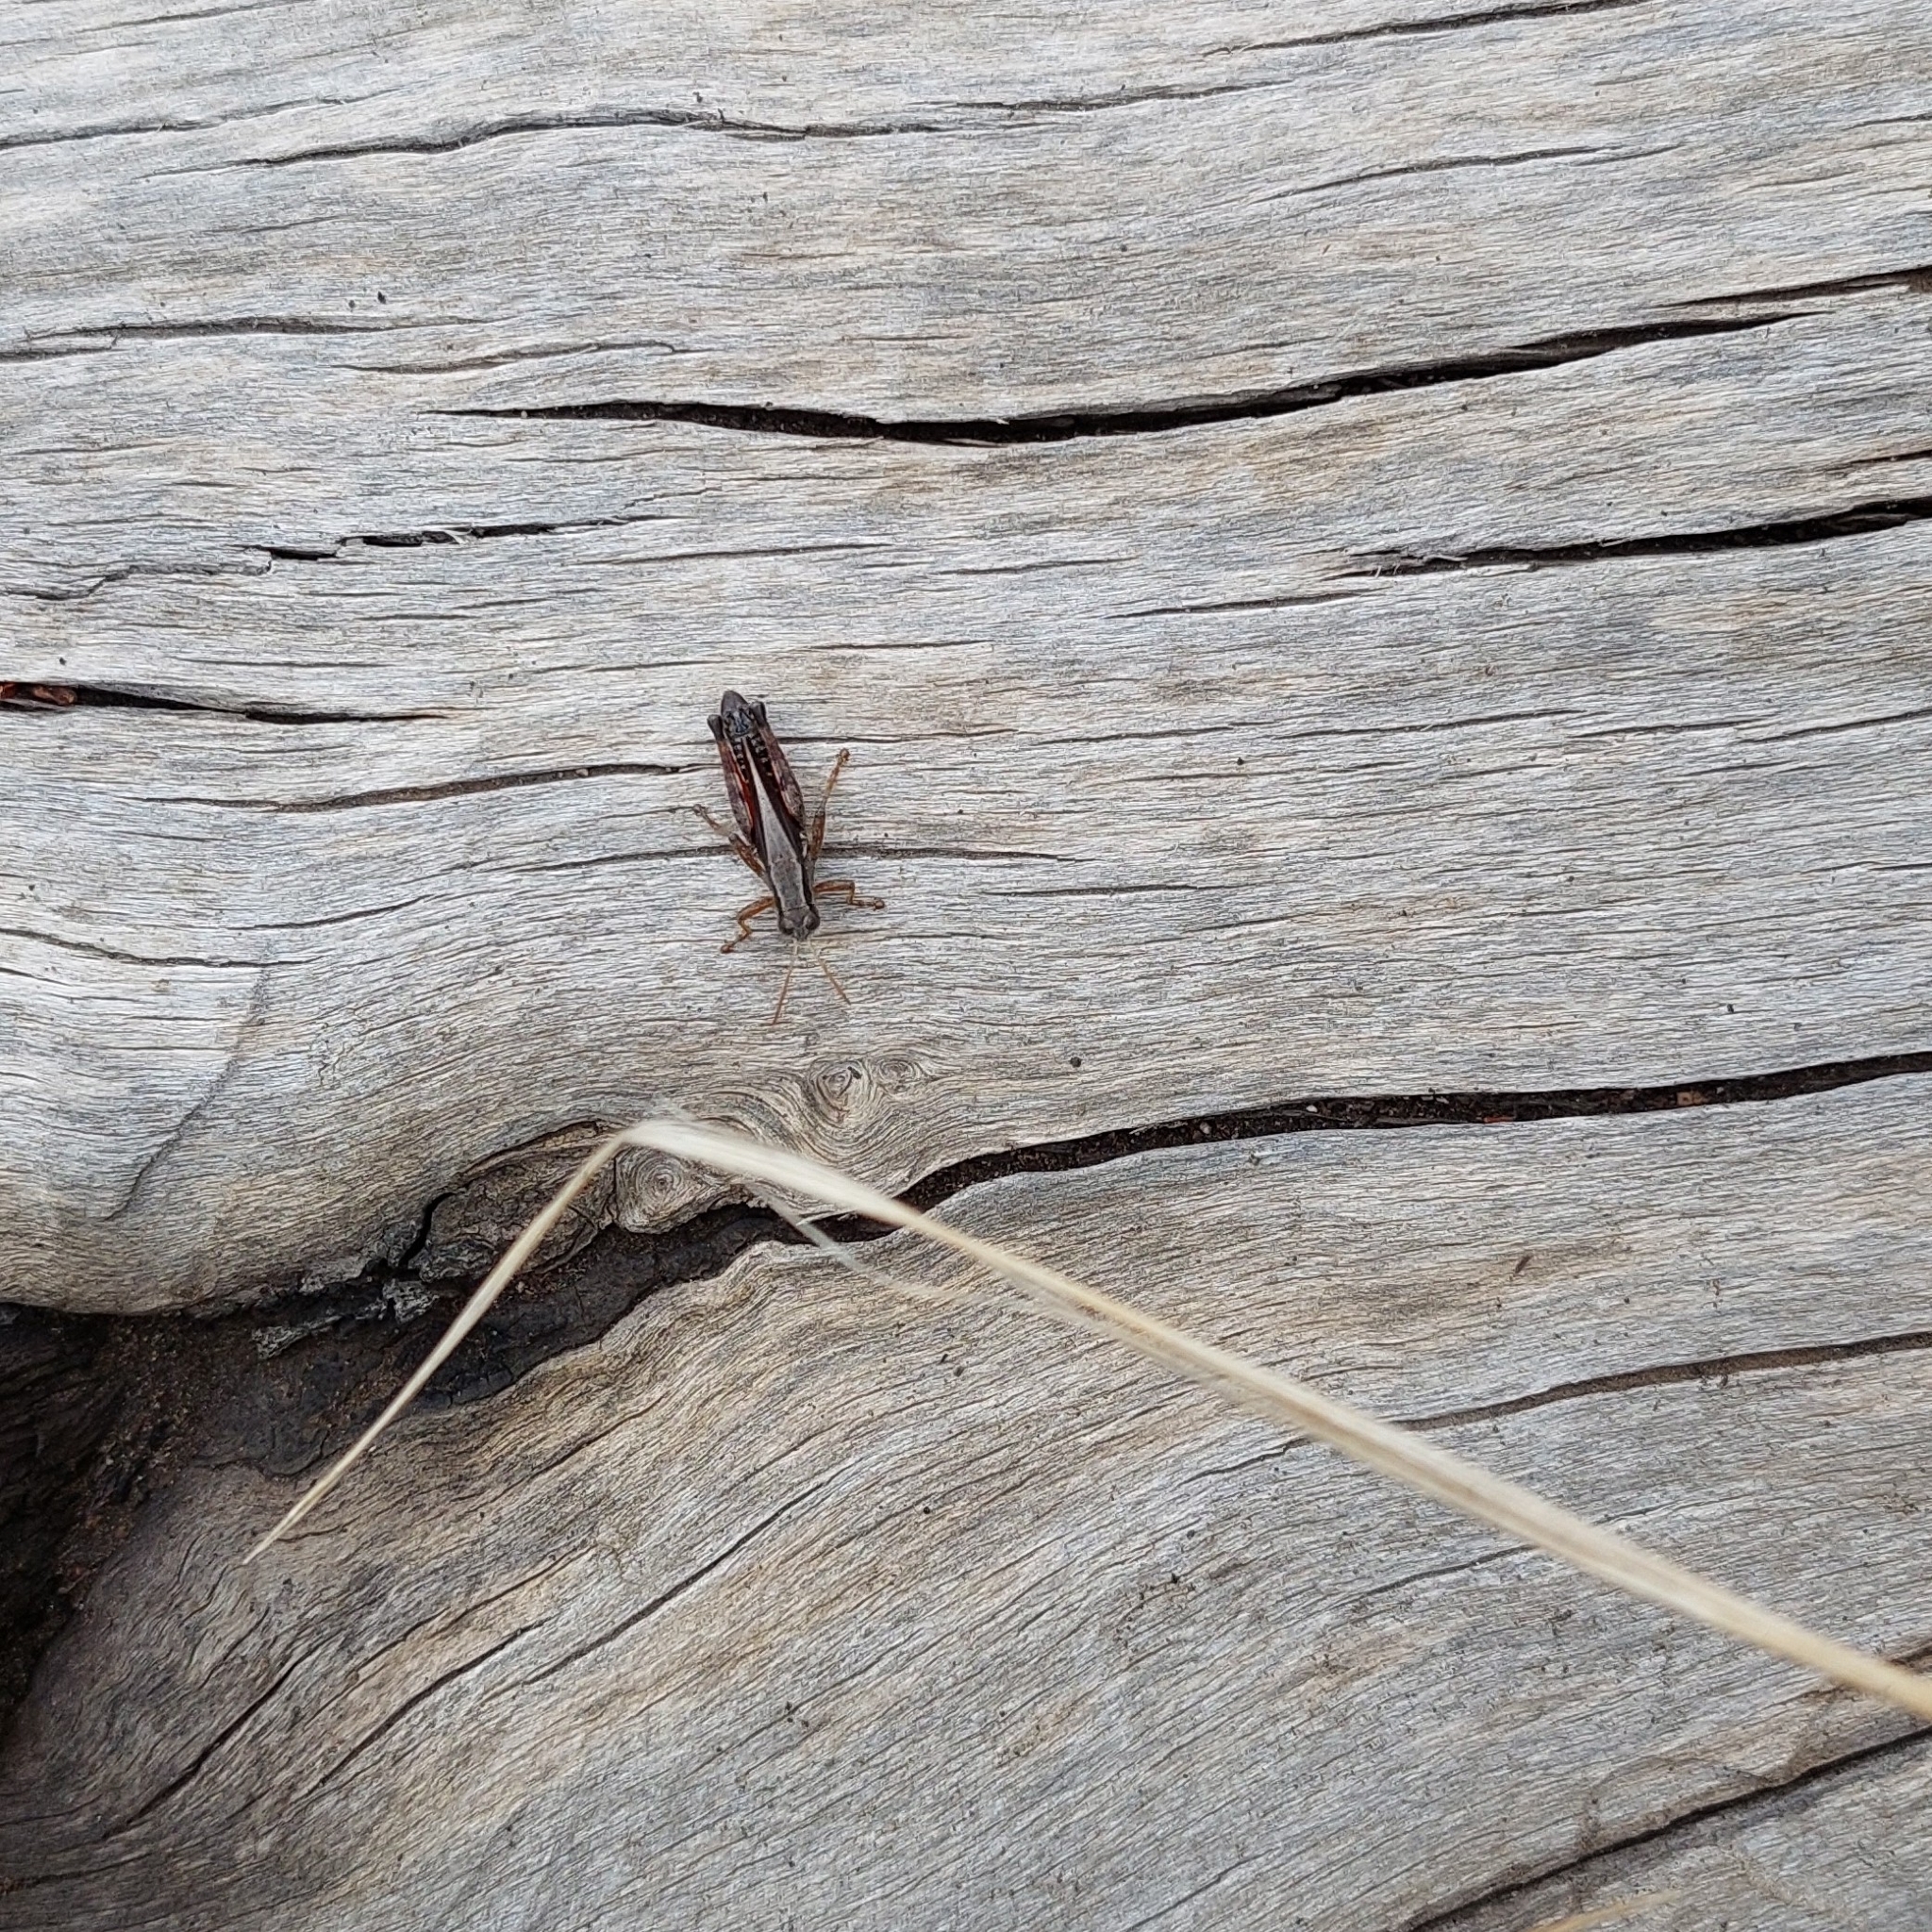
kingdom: Animalia
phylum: Arthropoda
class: Insecta
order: Orthoptera
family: Acrididae
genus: Dichroplus
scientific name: Dichroplus democraticus
